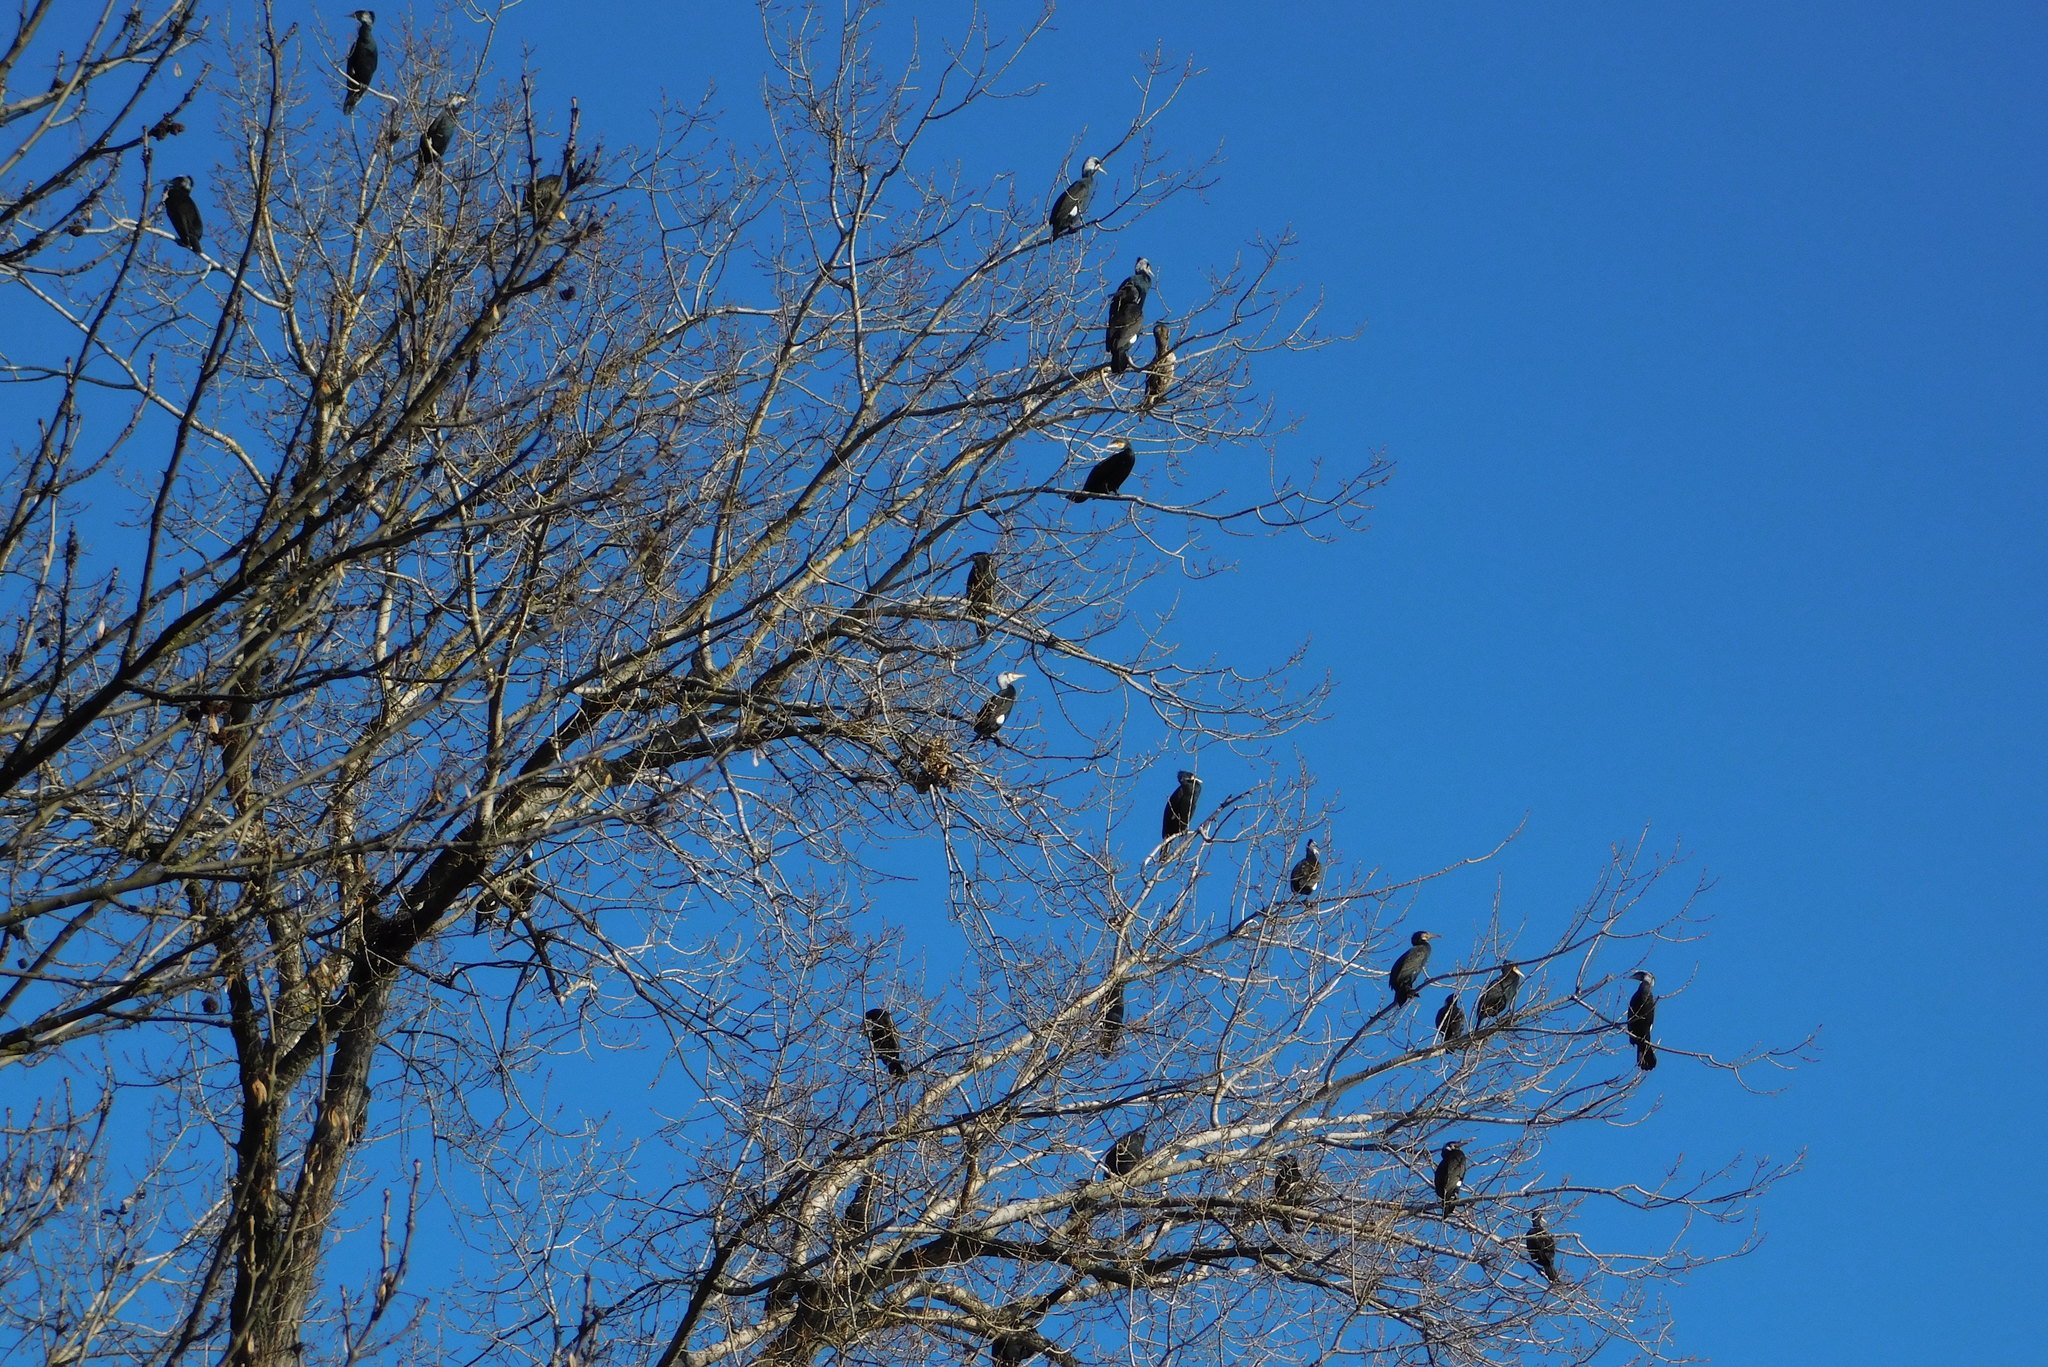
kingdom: Animalia
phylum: Chordata
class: Aves
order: Suliformes
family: Phalacrocoracidae
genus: Phalacrocorax
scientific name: Phalacrocorax carbo
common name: Great cormorant
